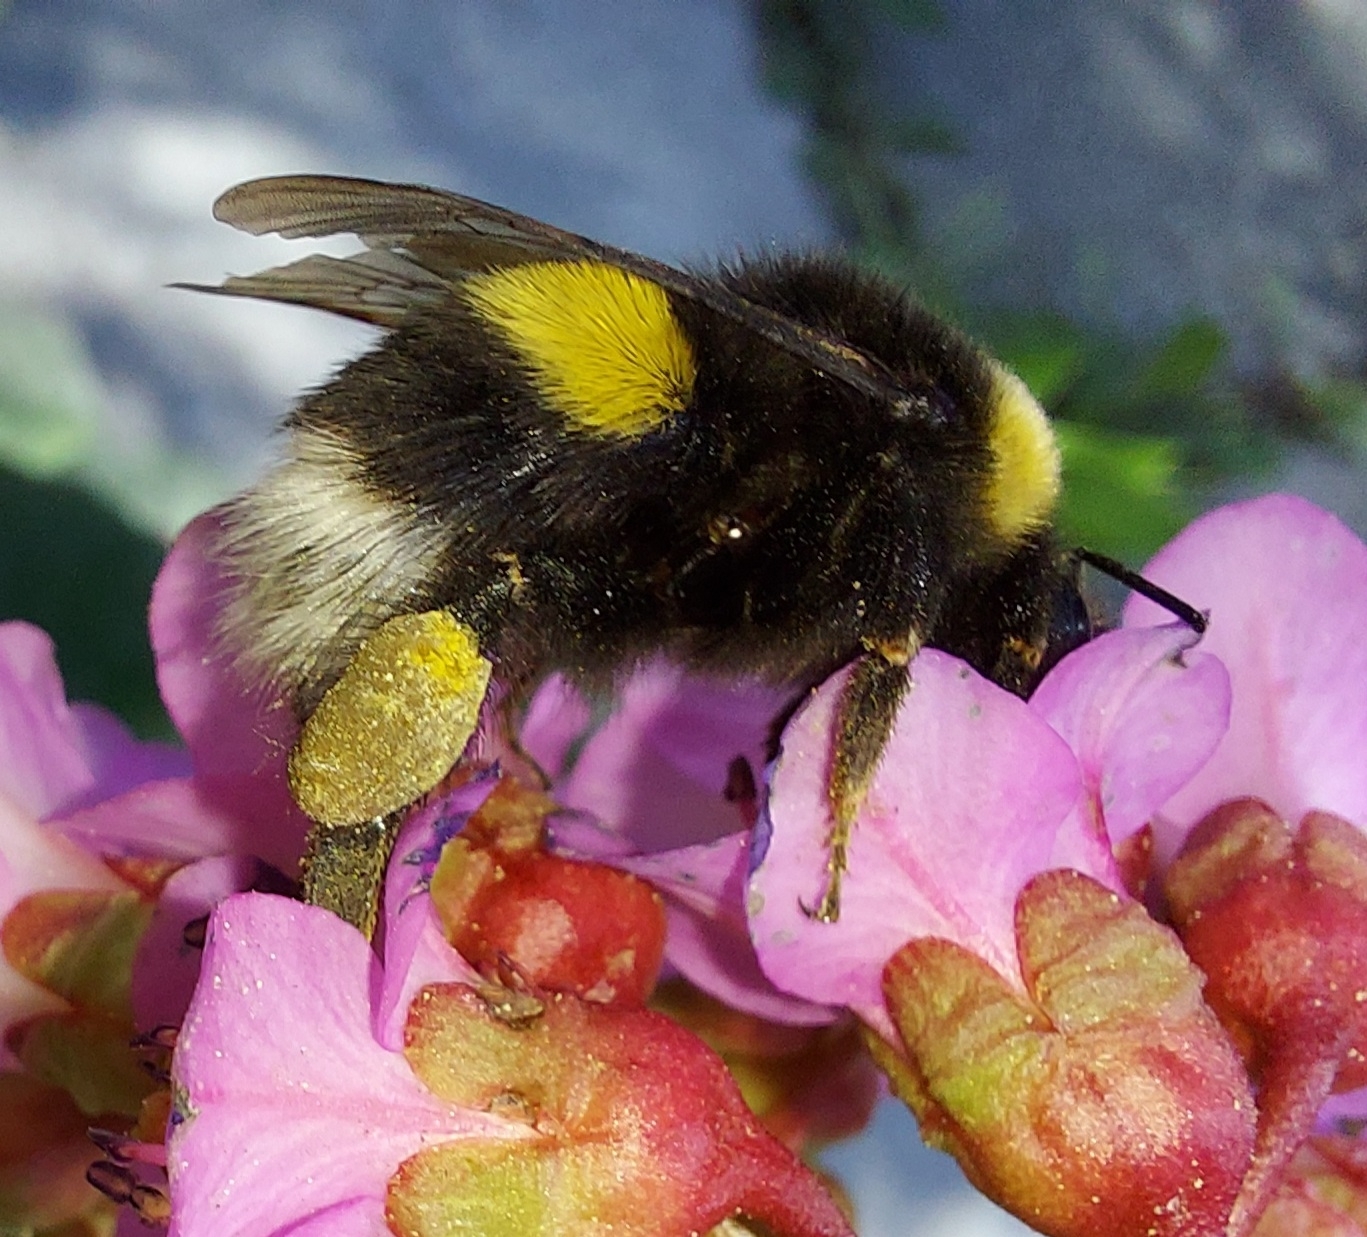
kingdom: Animalia
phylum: Arthropoda
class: Insecta
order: Hymenoptera
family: Apidae
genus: Bombus
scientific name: Bombus
